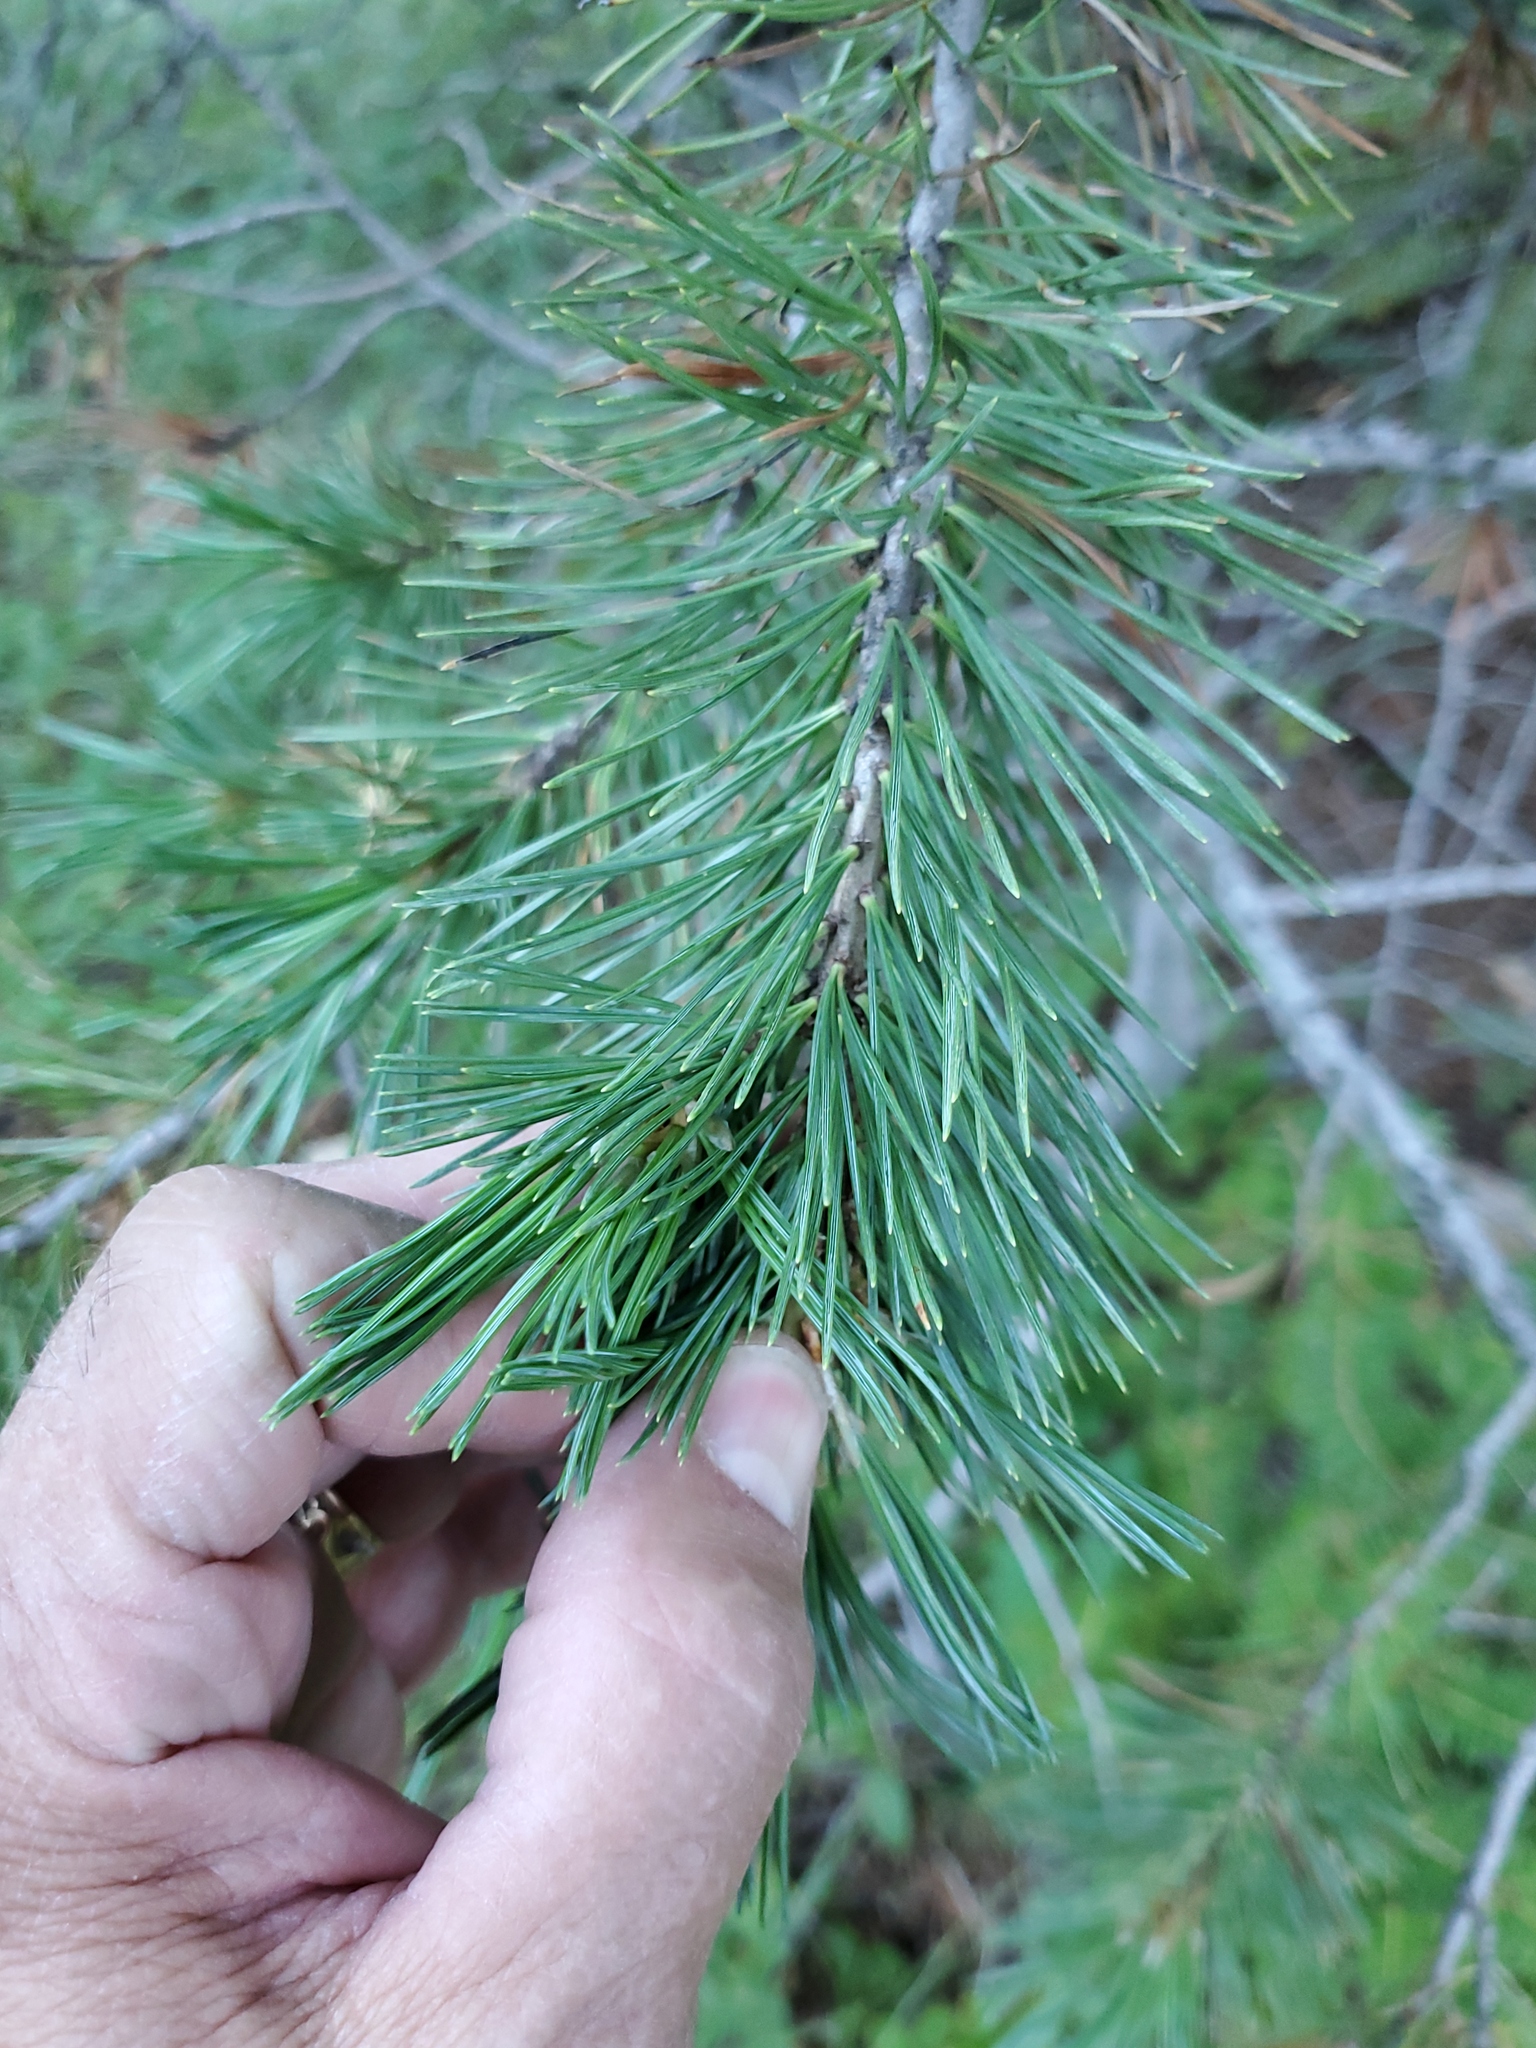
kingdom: Plantae
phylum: Tracheophyta
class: Pinopsida
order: Pinales
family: Pinaceae
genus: Pseudotsuga
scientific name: Pseudotsuga menziesii
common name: Douglas fir
